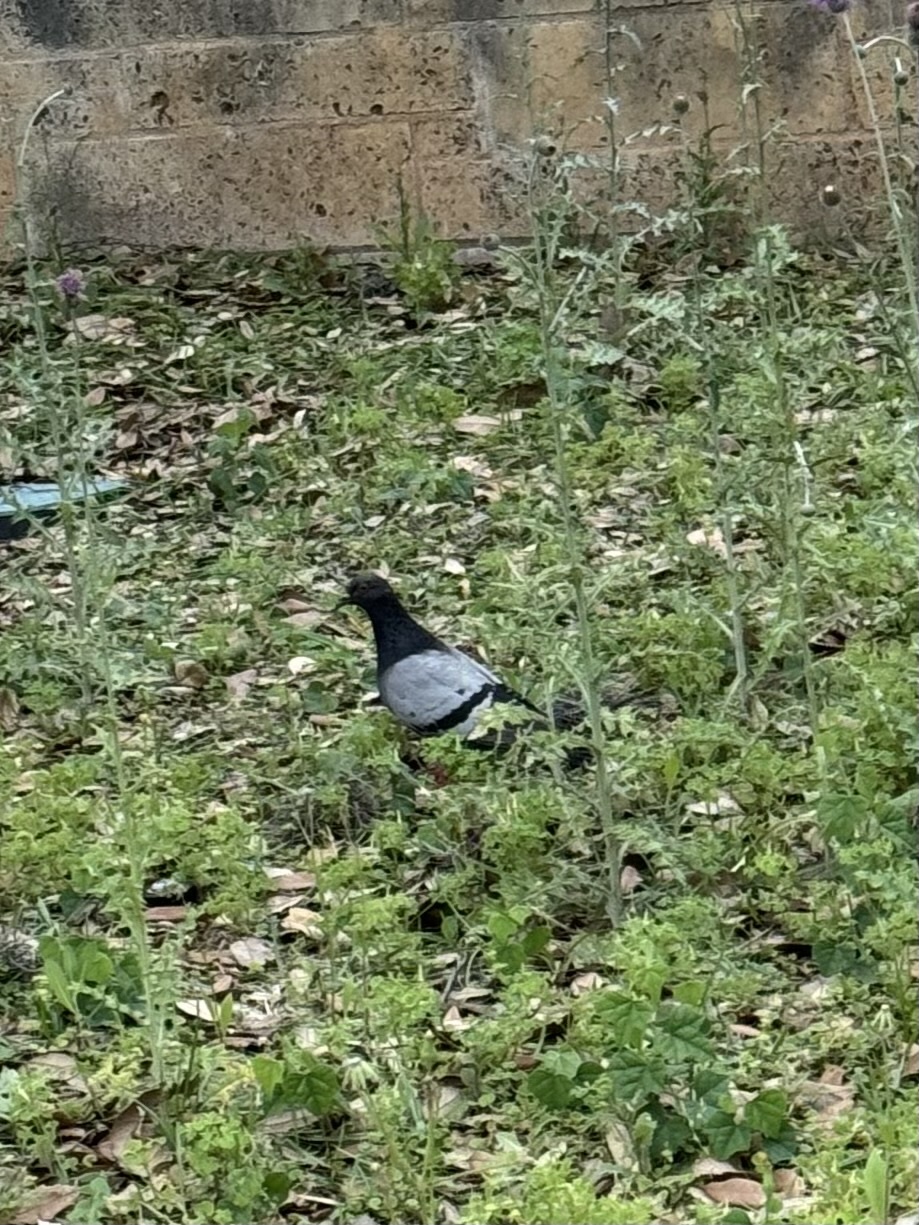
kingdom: Animalia
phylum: Chordata
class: Aves
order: Columbiformes
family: Columbidae
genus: Columba
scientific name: Columba livia
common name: Rock pigeon
